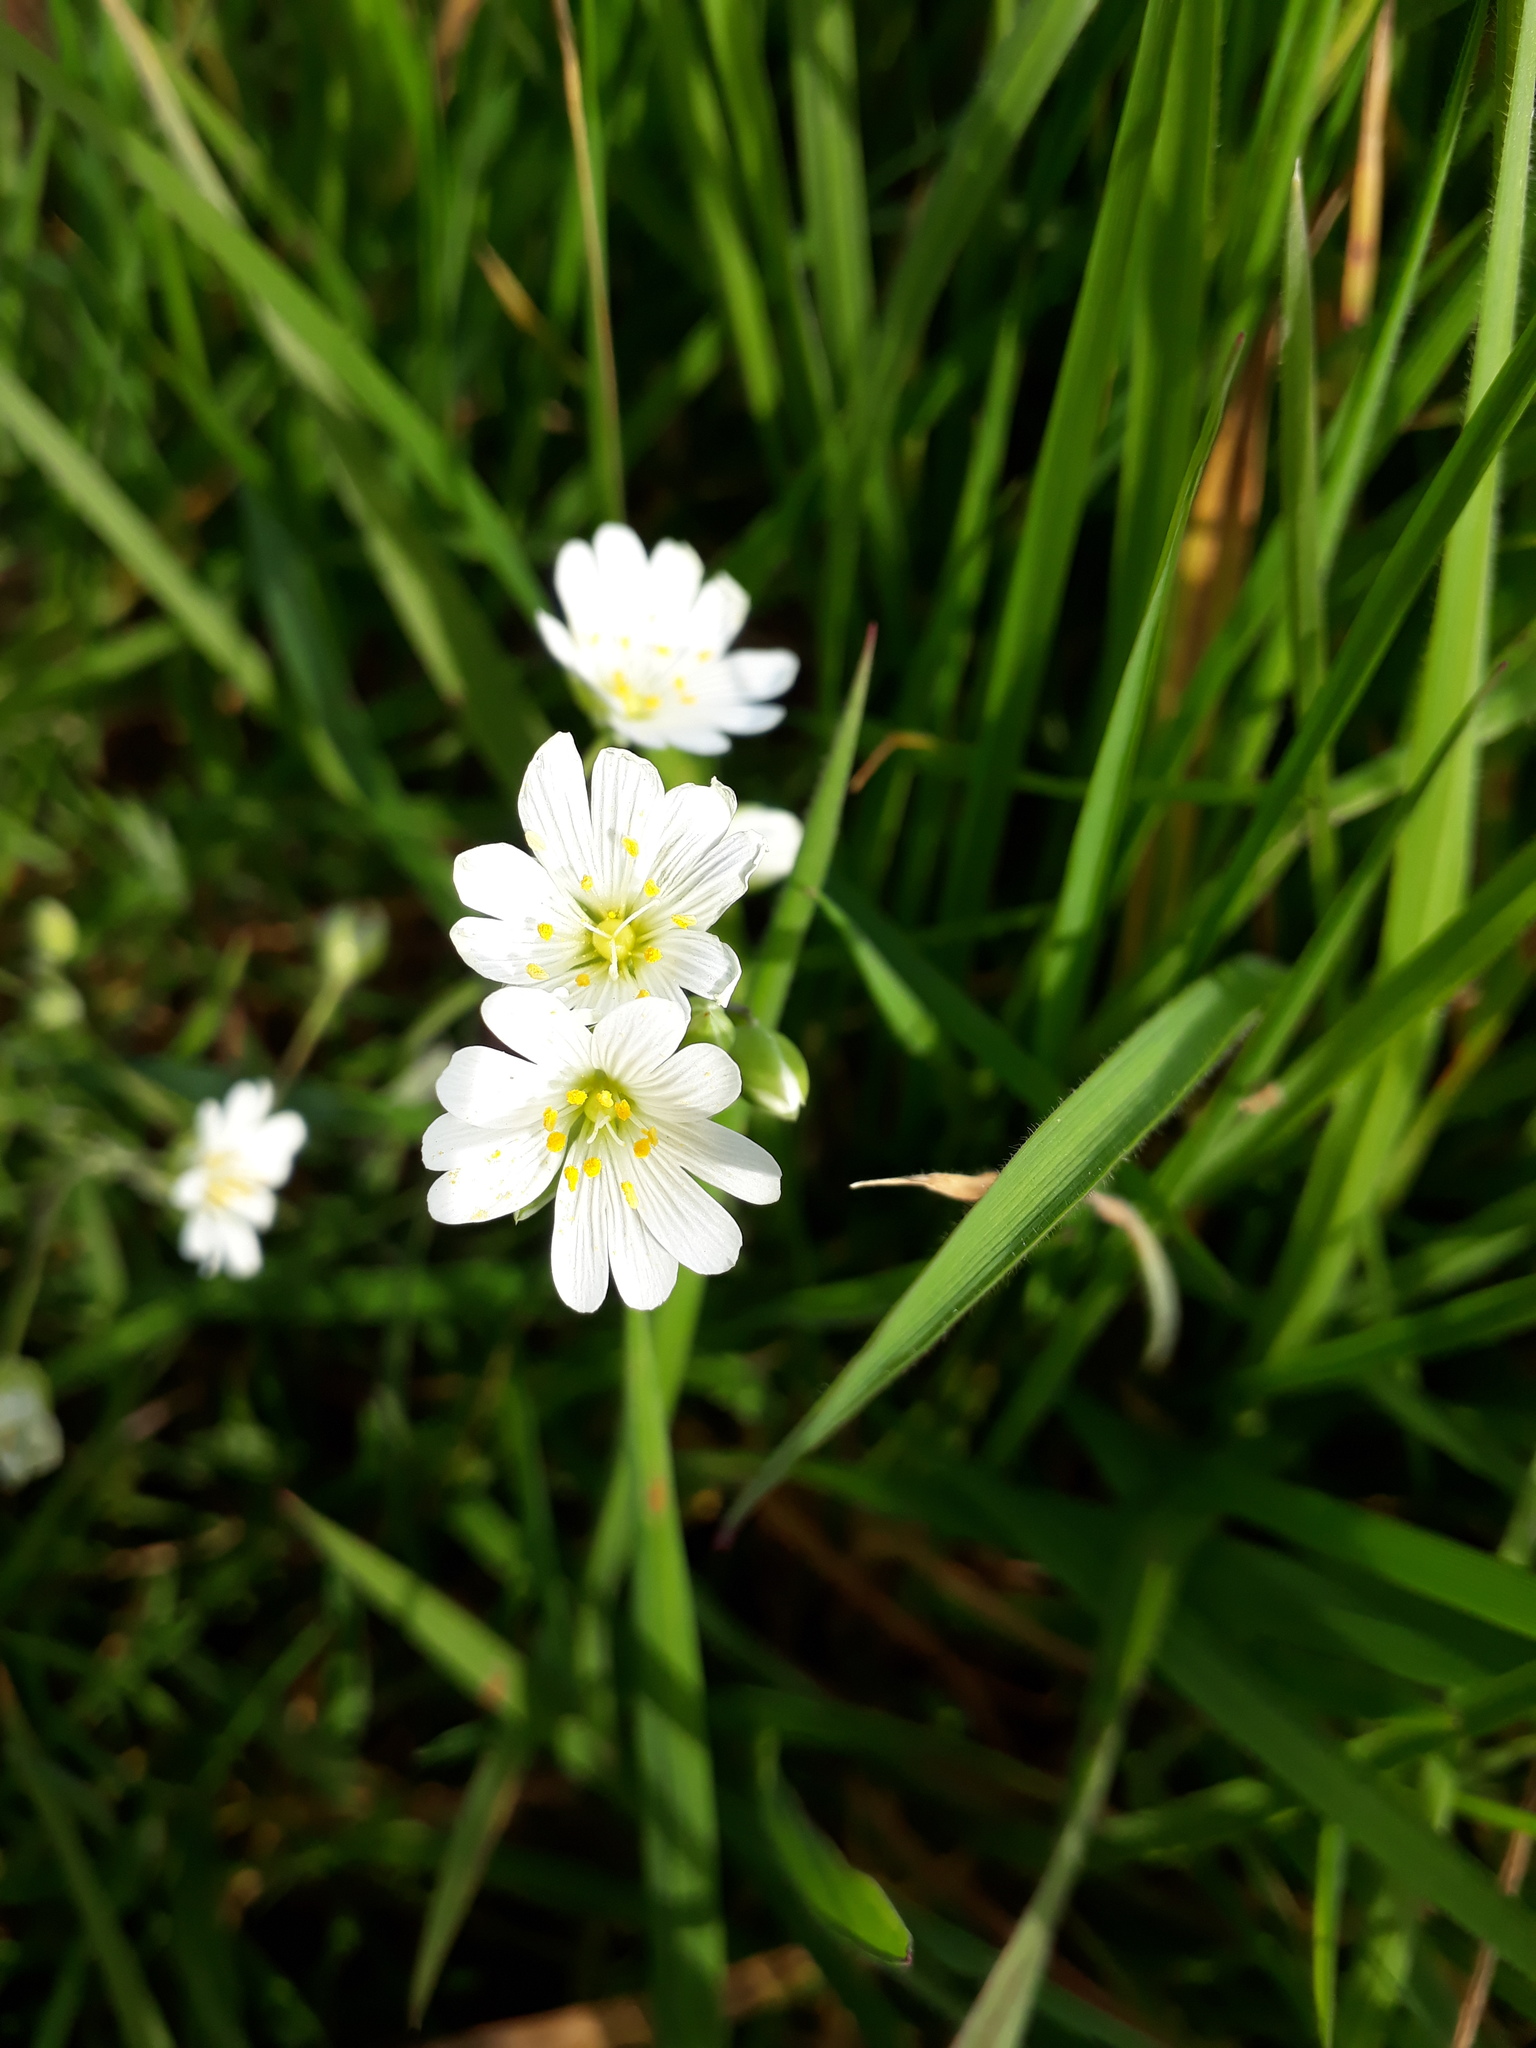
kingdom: Plantae
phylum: Tracheophyta
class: Magnoliopsida
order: Caryophyllales
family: Caryophyllaceae
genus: Rabelera
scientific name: Rabelera holostea
